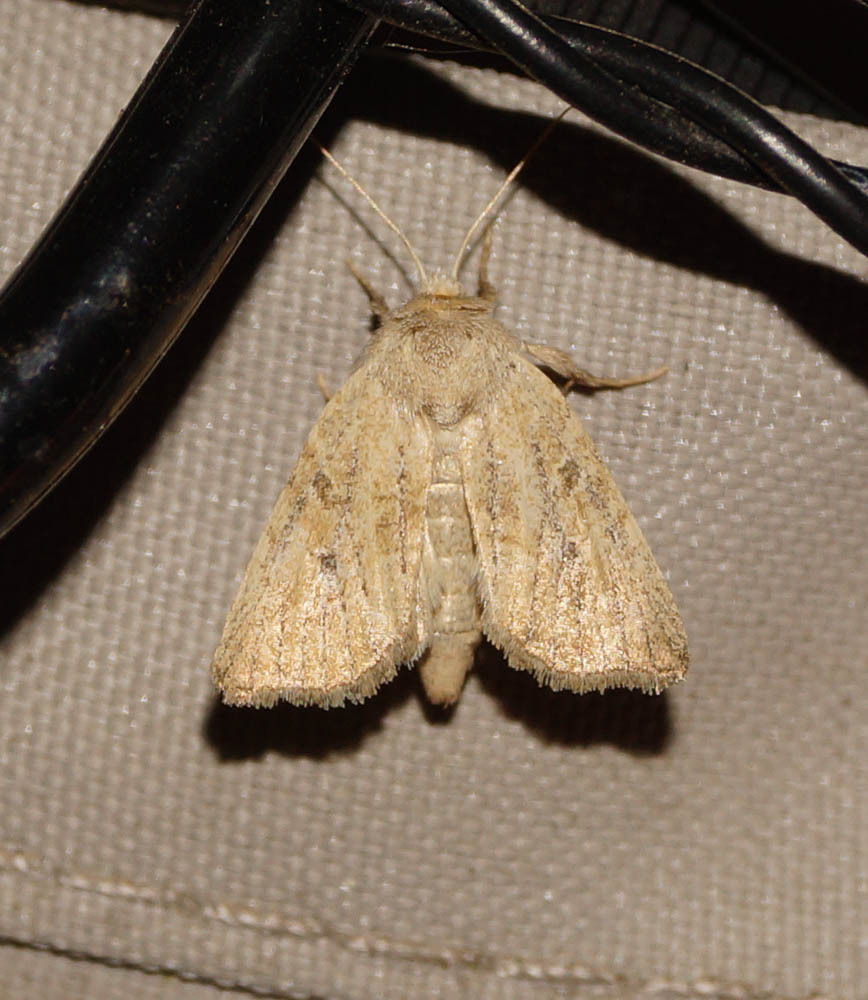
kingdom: Animalia
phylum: Arthropoda
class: Insecta
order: Lepidoptera
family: Noctuidae
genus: Photedes
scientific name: Photedes fluxa
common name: Mere wainscot
